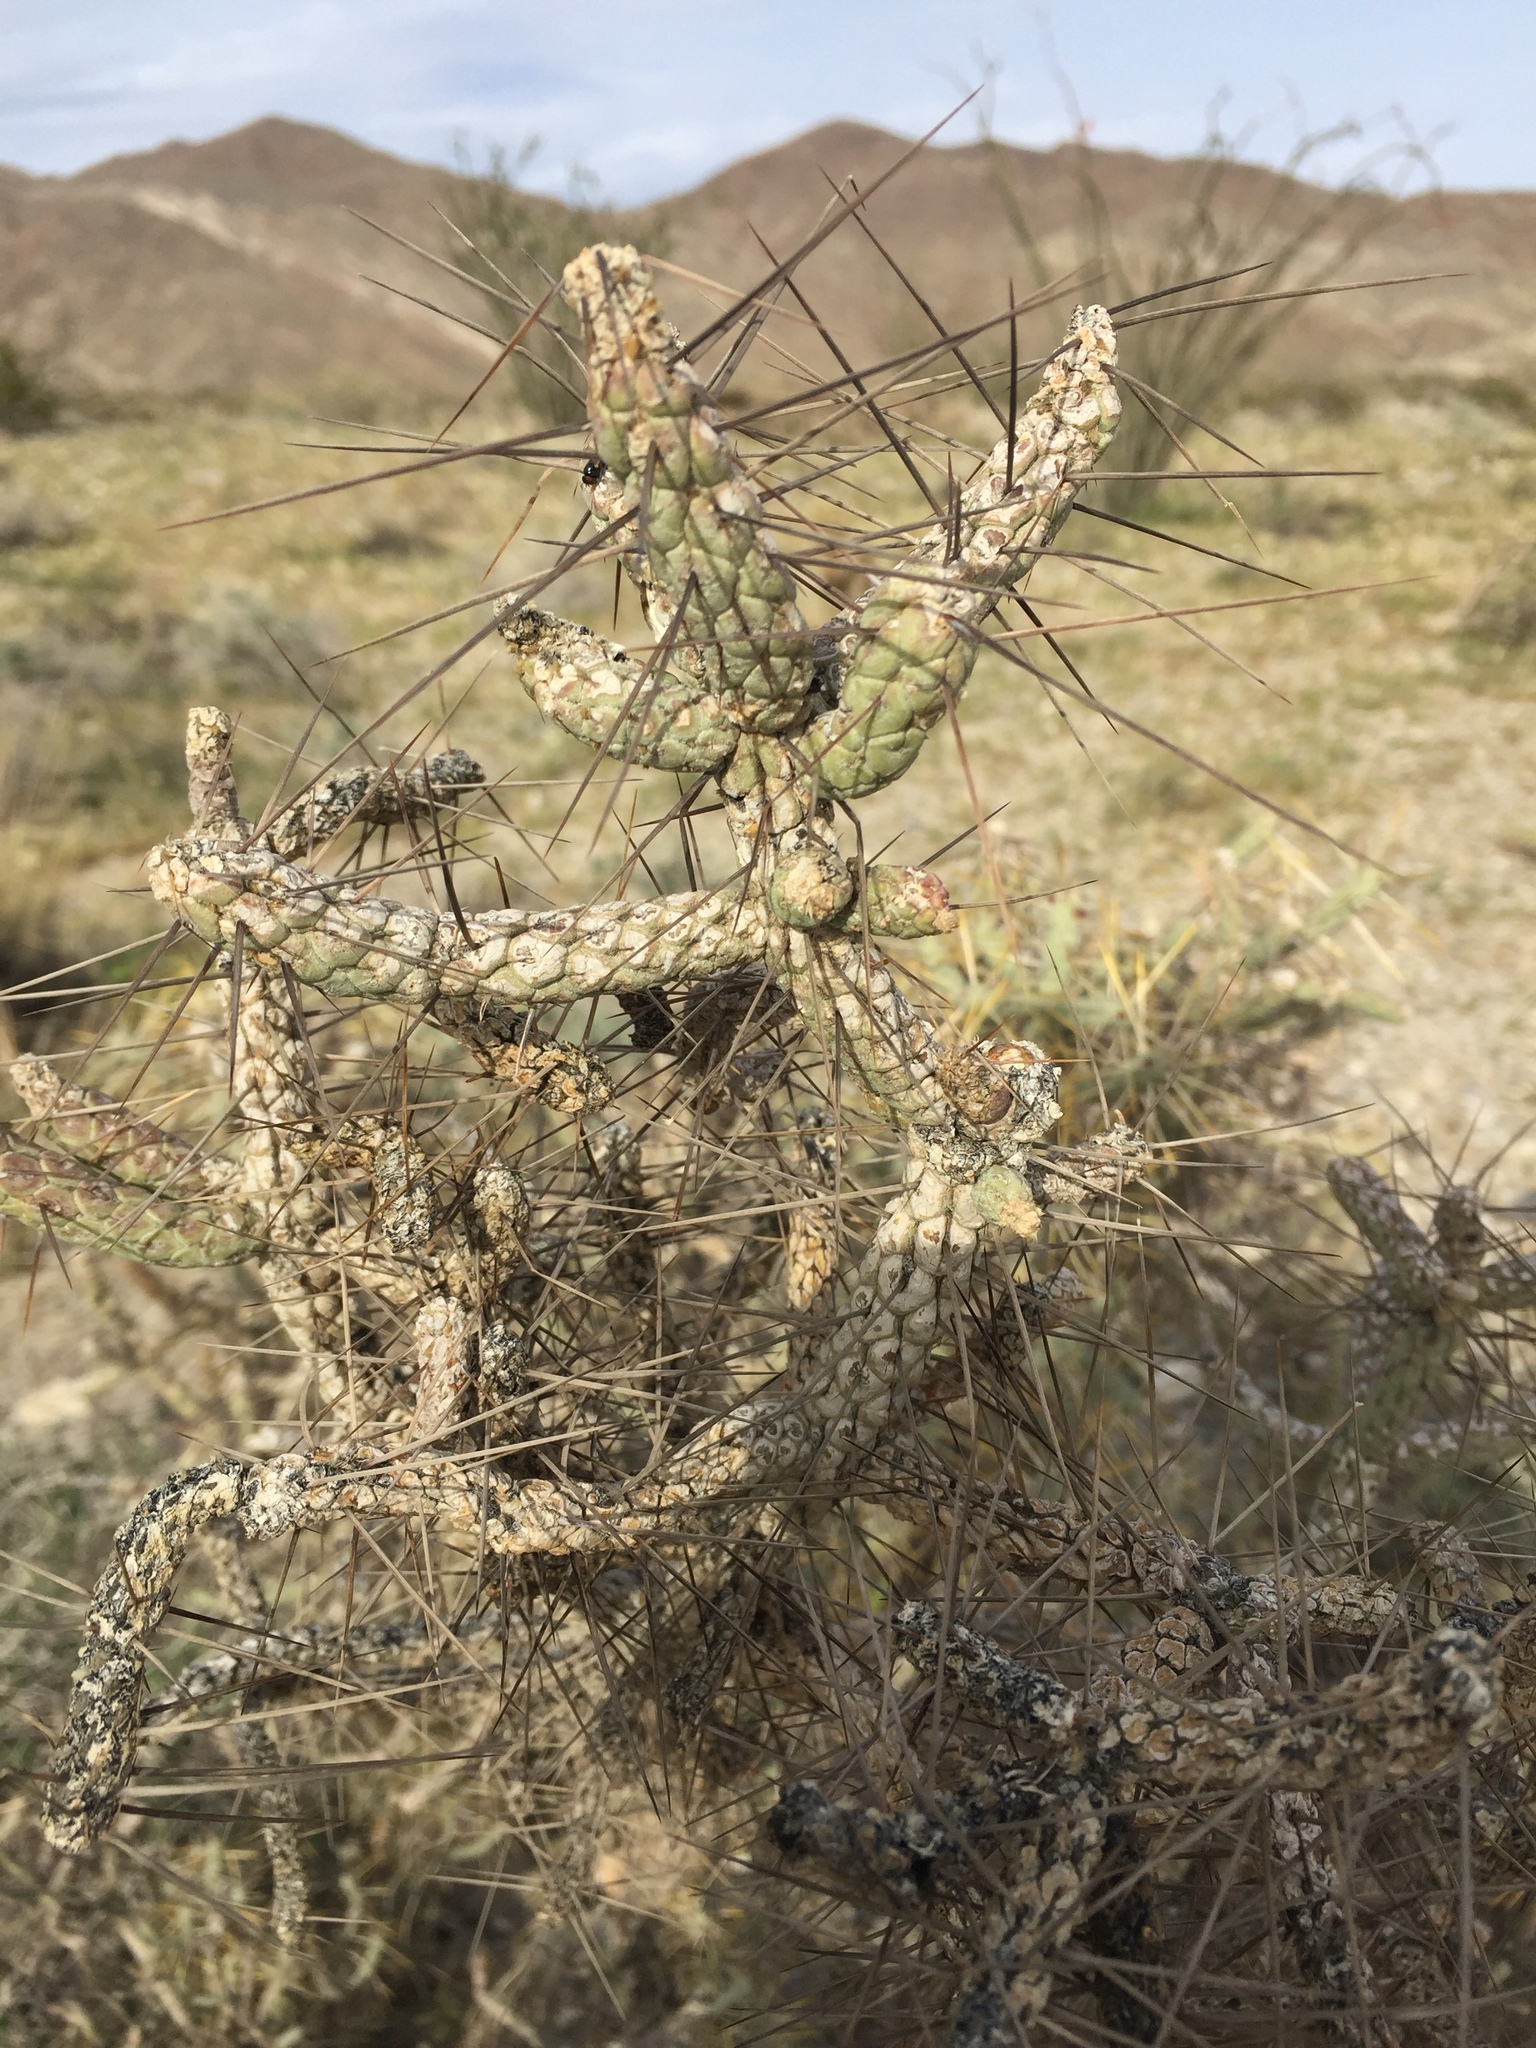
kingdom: Plantae
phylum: Tracheophyta
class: Magnoliopsida
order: Caryophyllales
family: Cactaceae
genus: Cylindropuntia
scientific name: Cylindropuntia ramosissima
